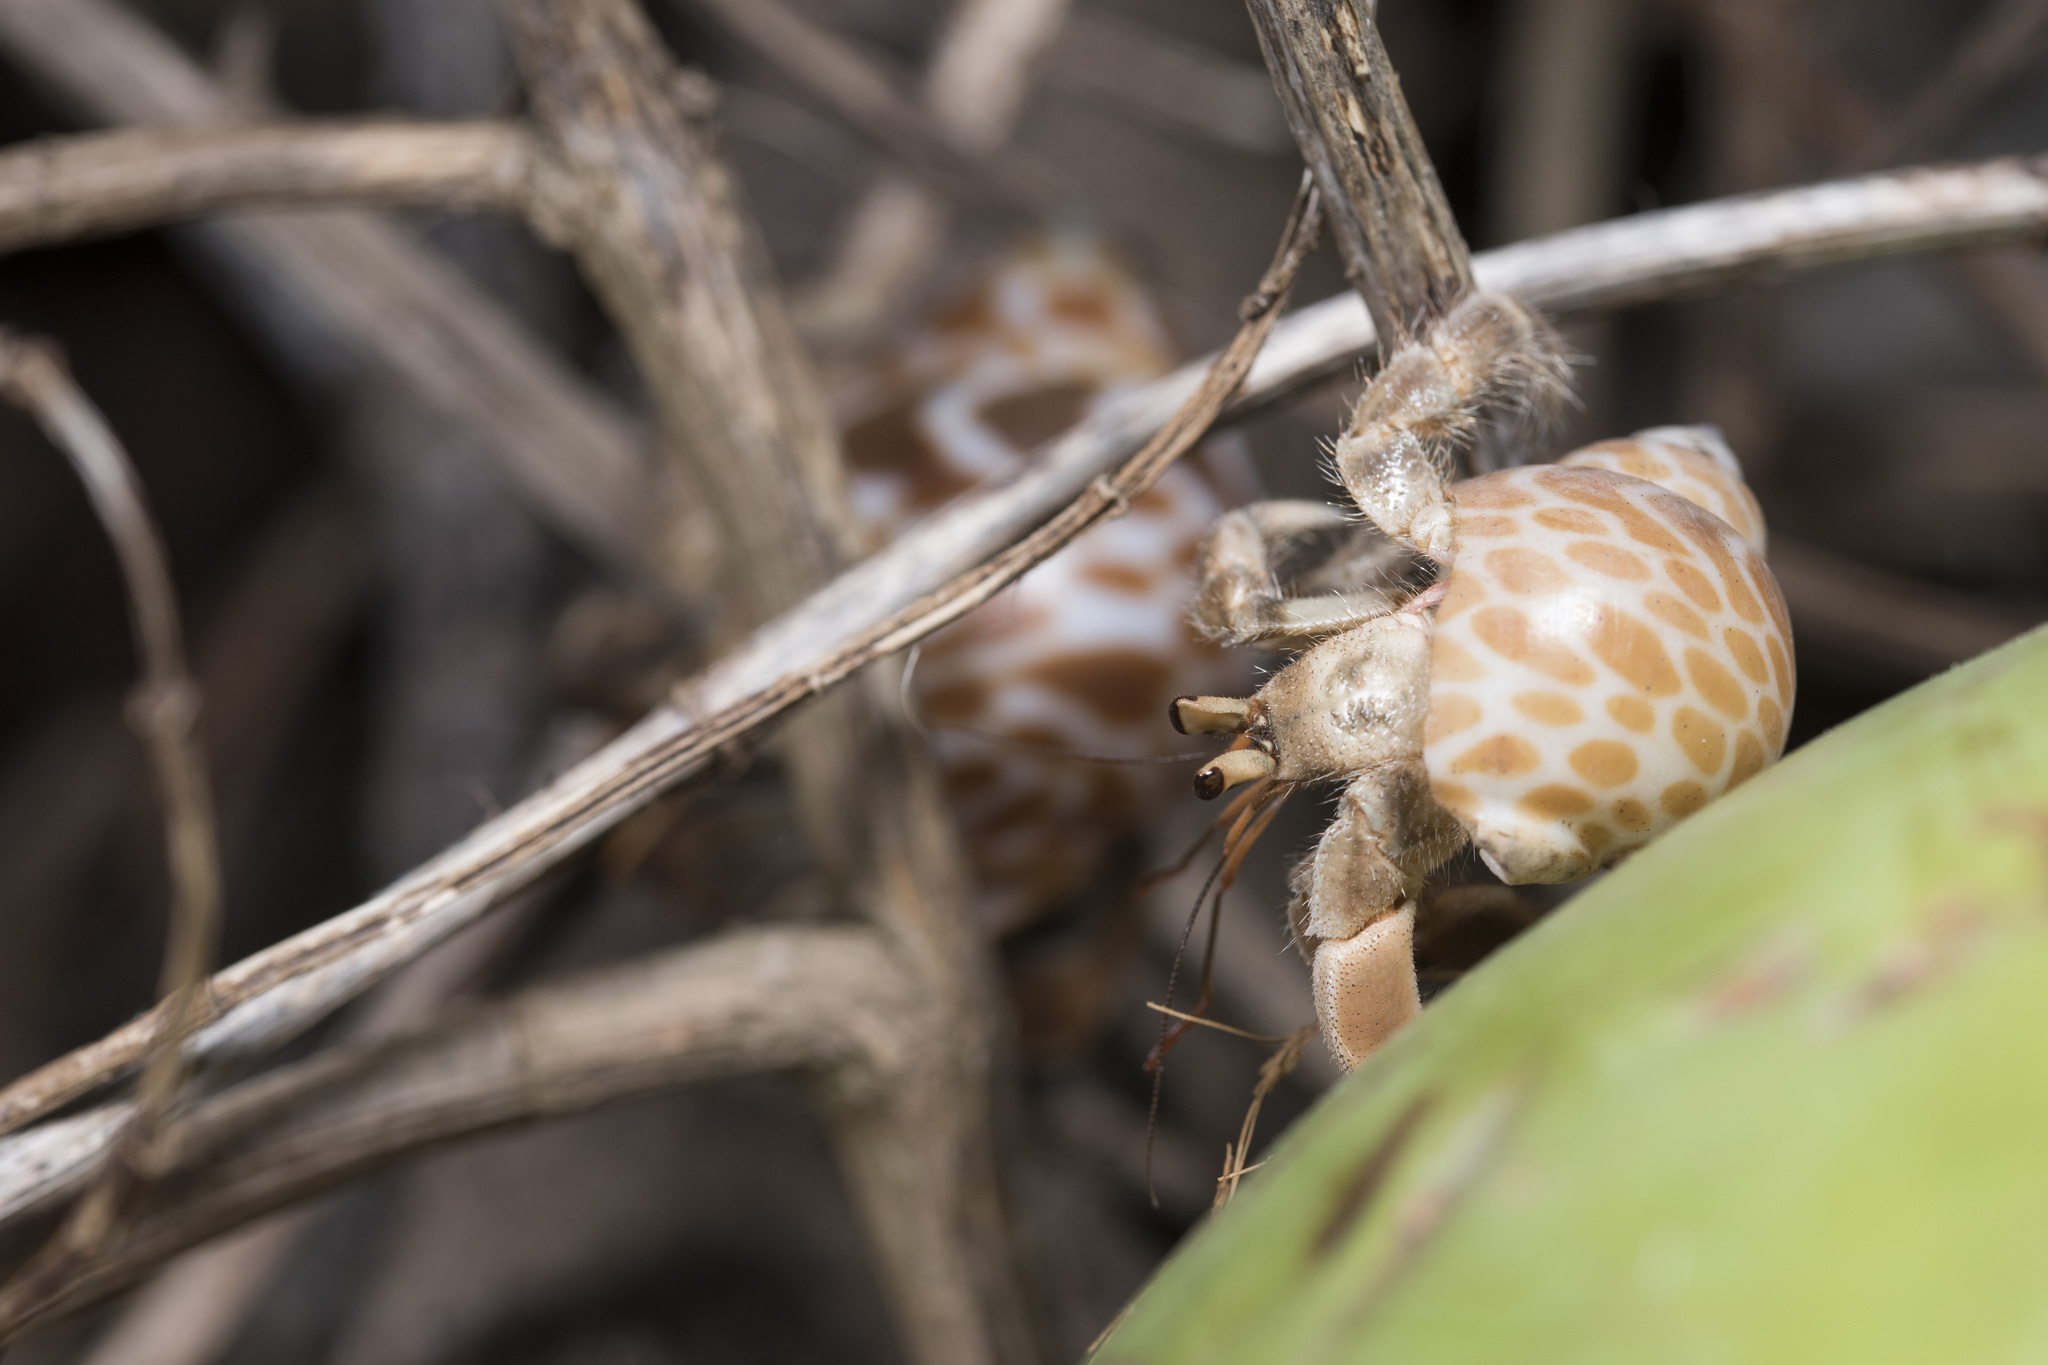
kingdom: Animalia
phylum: Arthropoda
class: Malacostraca
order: Decapoda
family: Coenobitidae
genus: Coenobita
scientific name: Coenobita rugosus
